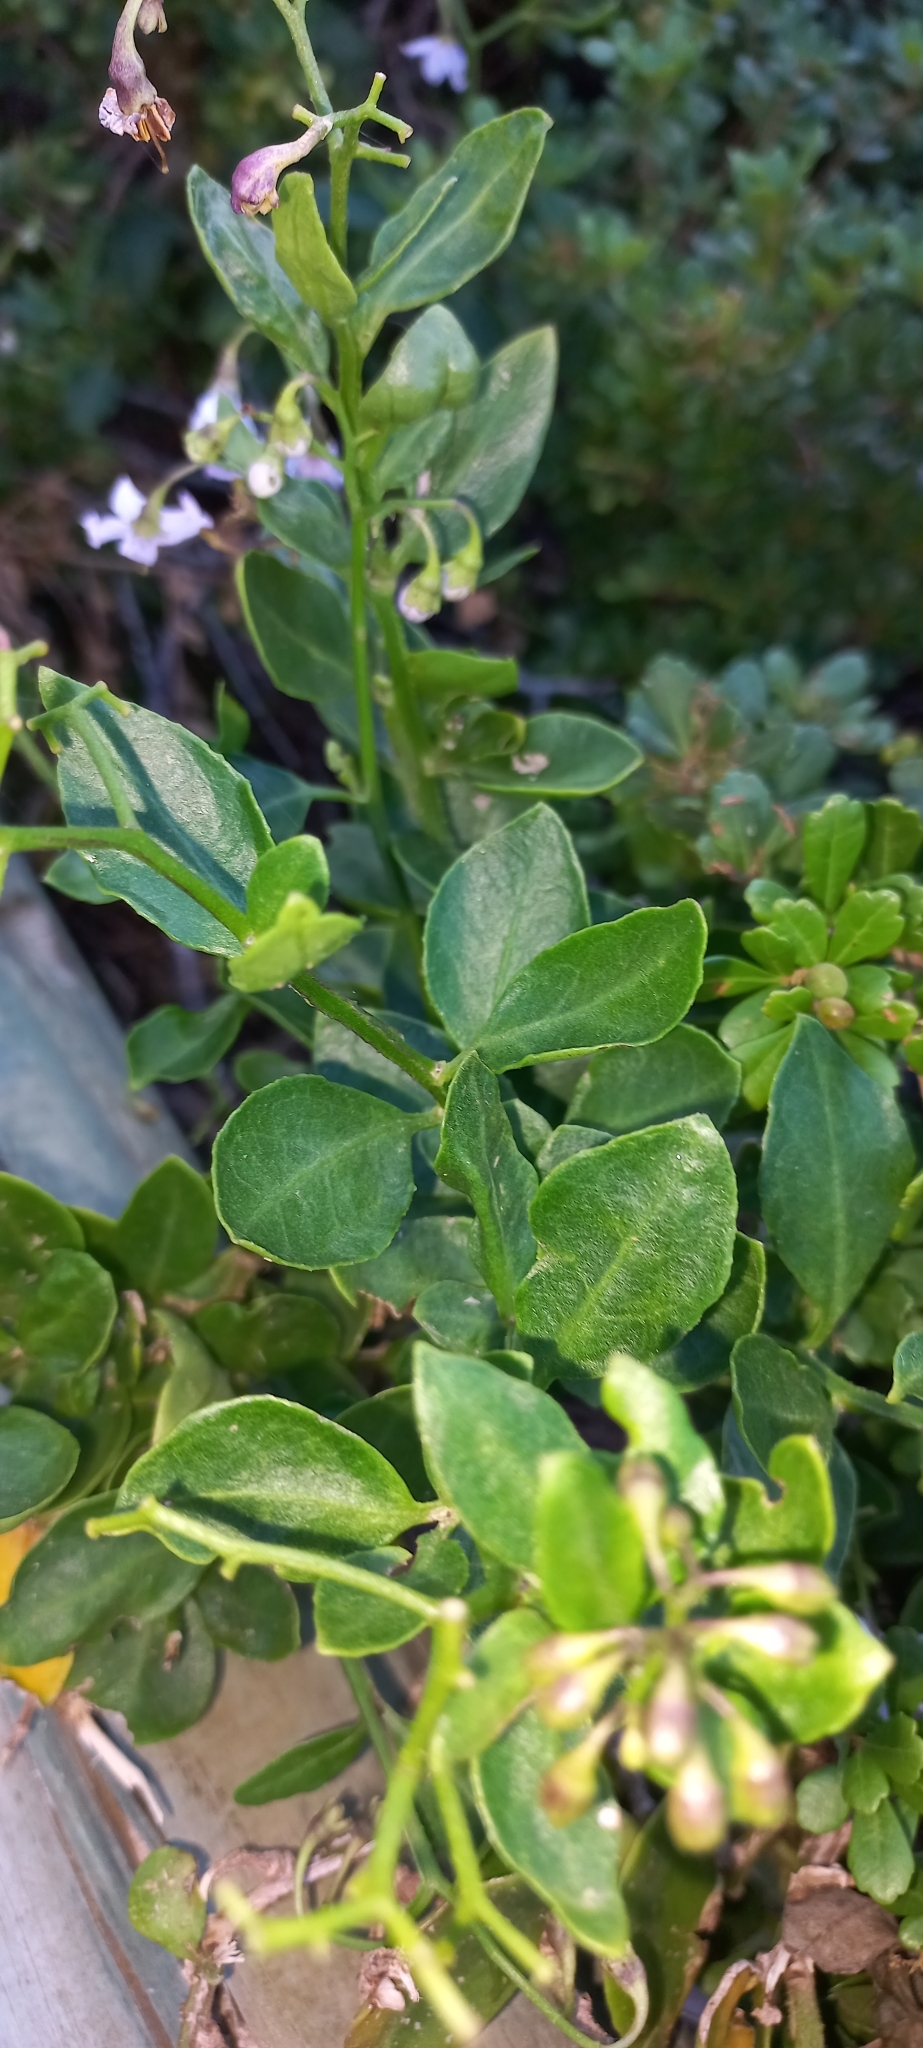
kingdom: Plantae
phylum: Tracheophyta
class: Magnoliopsida
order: Solanales
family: Solanaceae
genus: Solanum
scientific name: Solanum africanum
